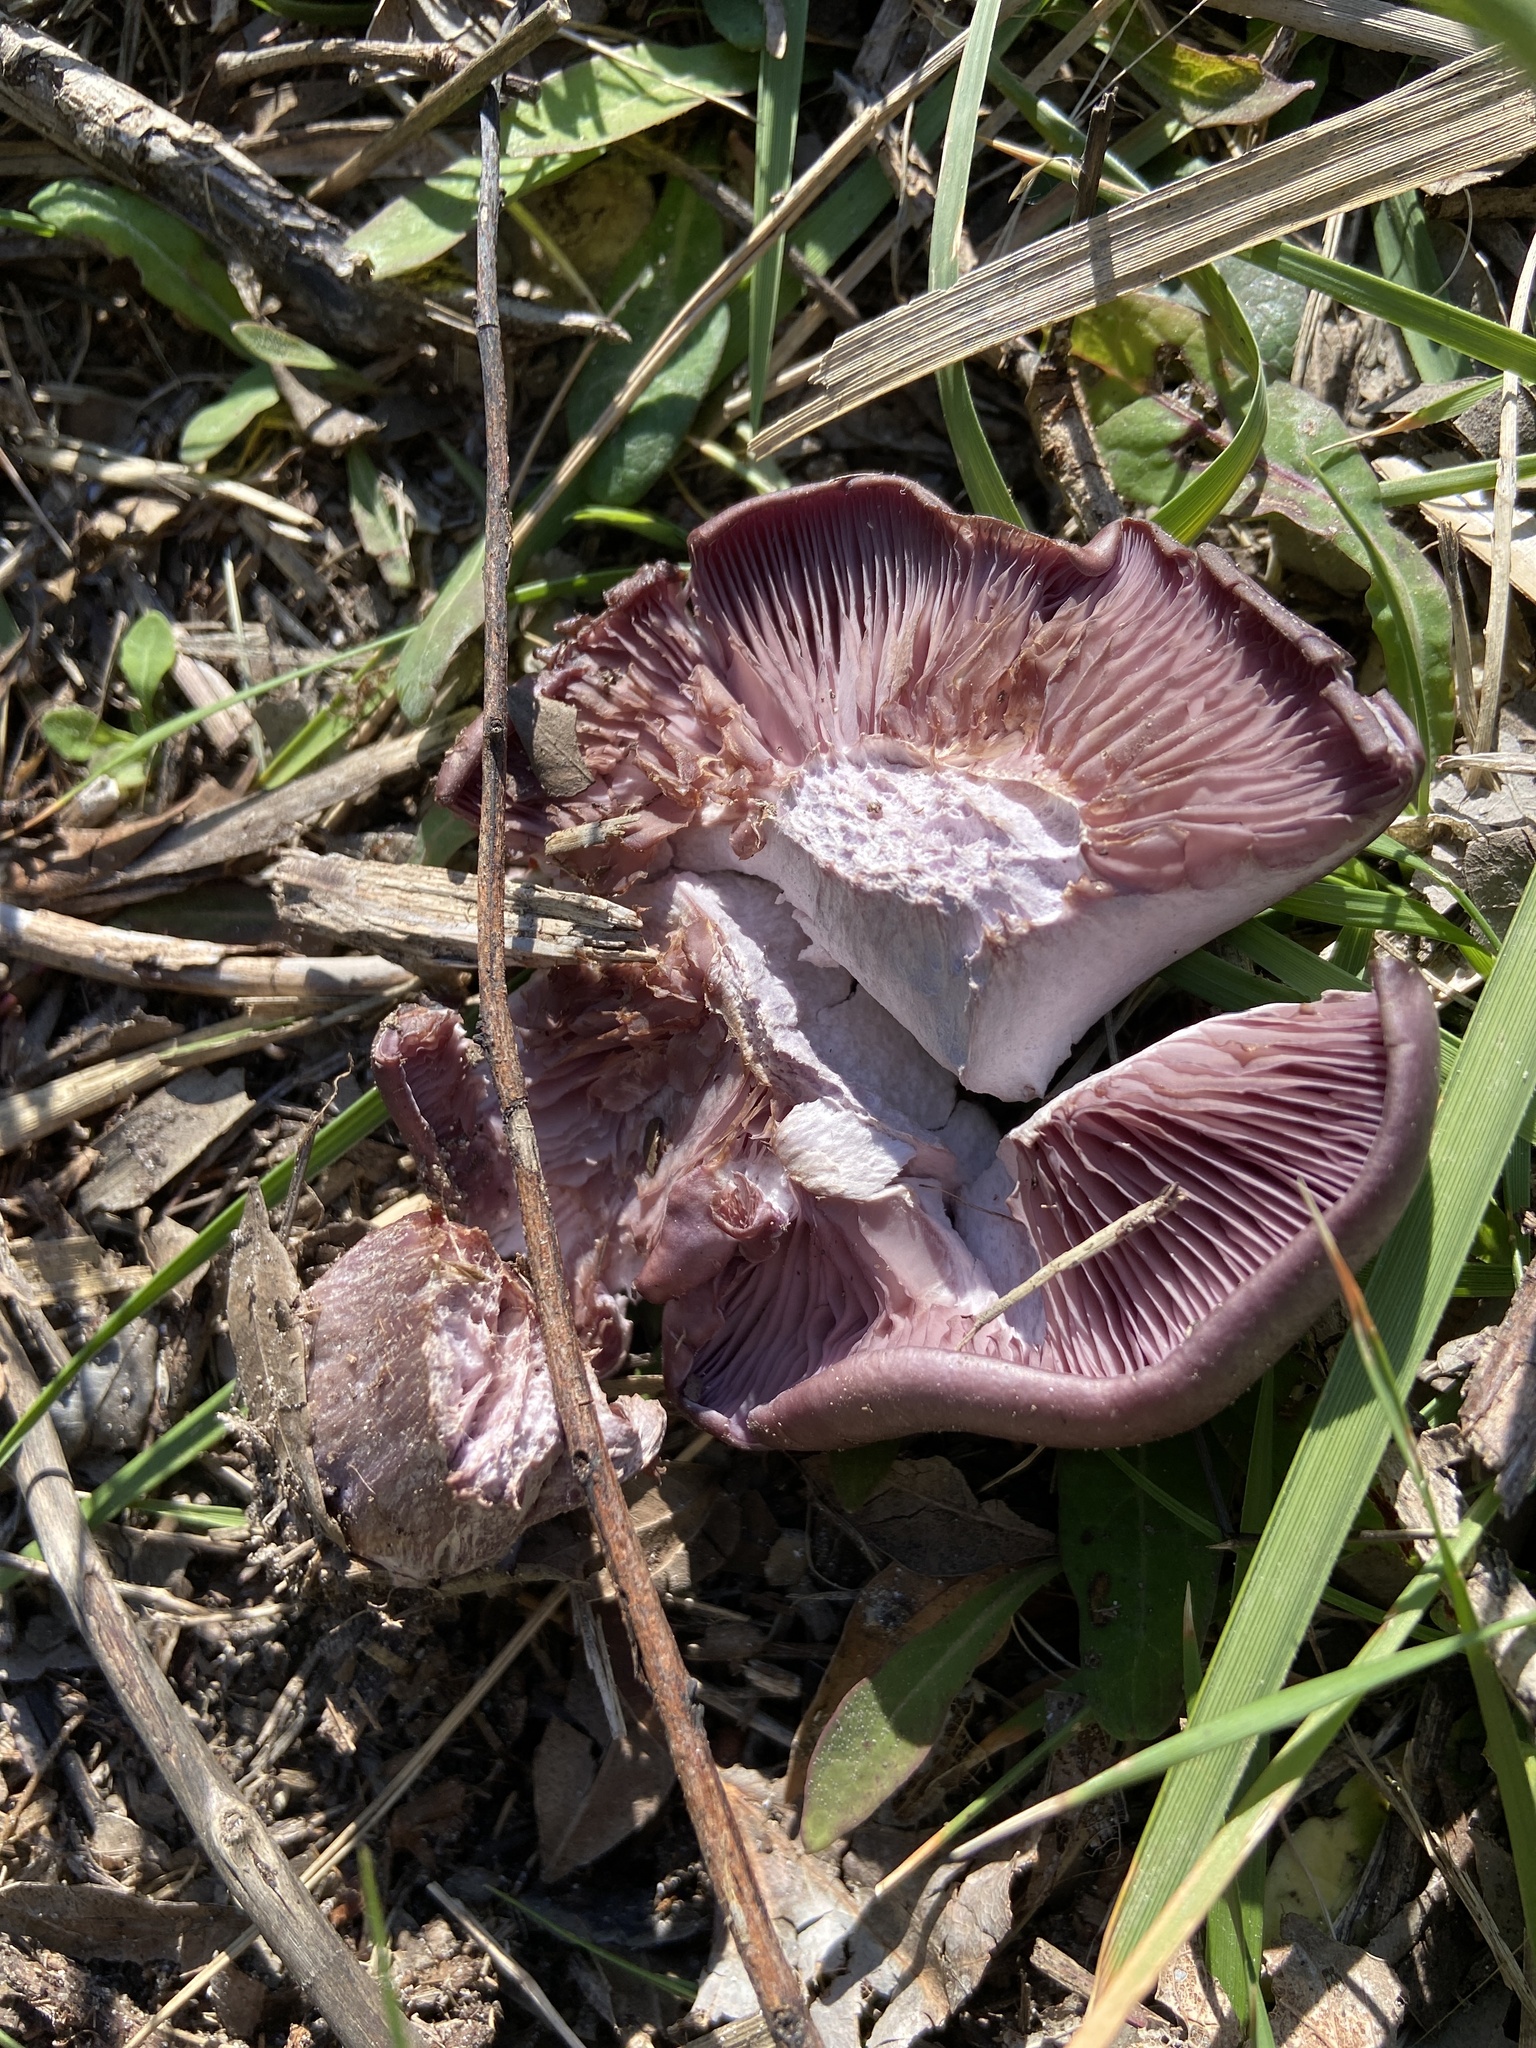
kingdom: Fungi
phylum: Basidiomycota
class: Agaricomycetes
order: Agaricales
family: Tricholomataceae
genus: Collybia
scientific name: Collybia
